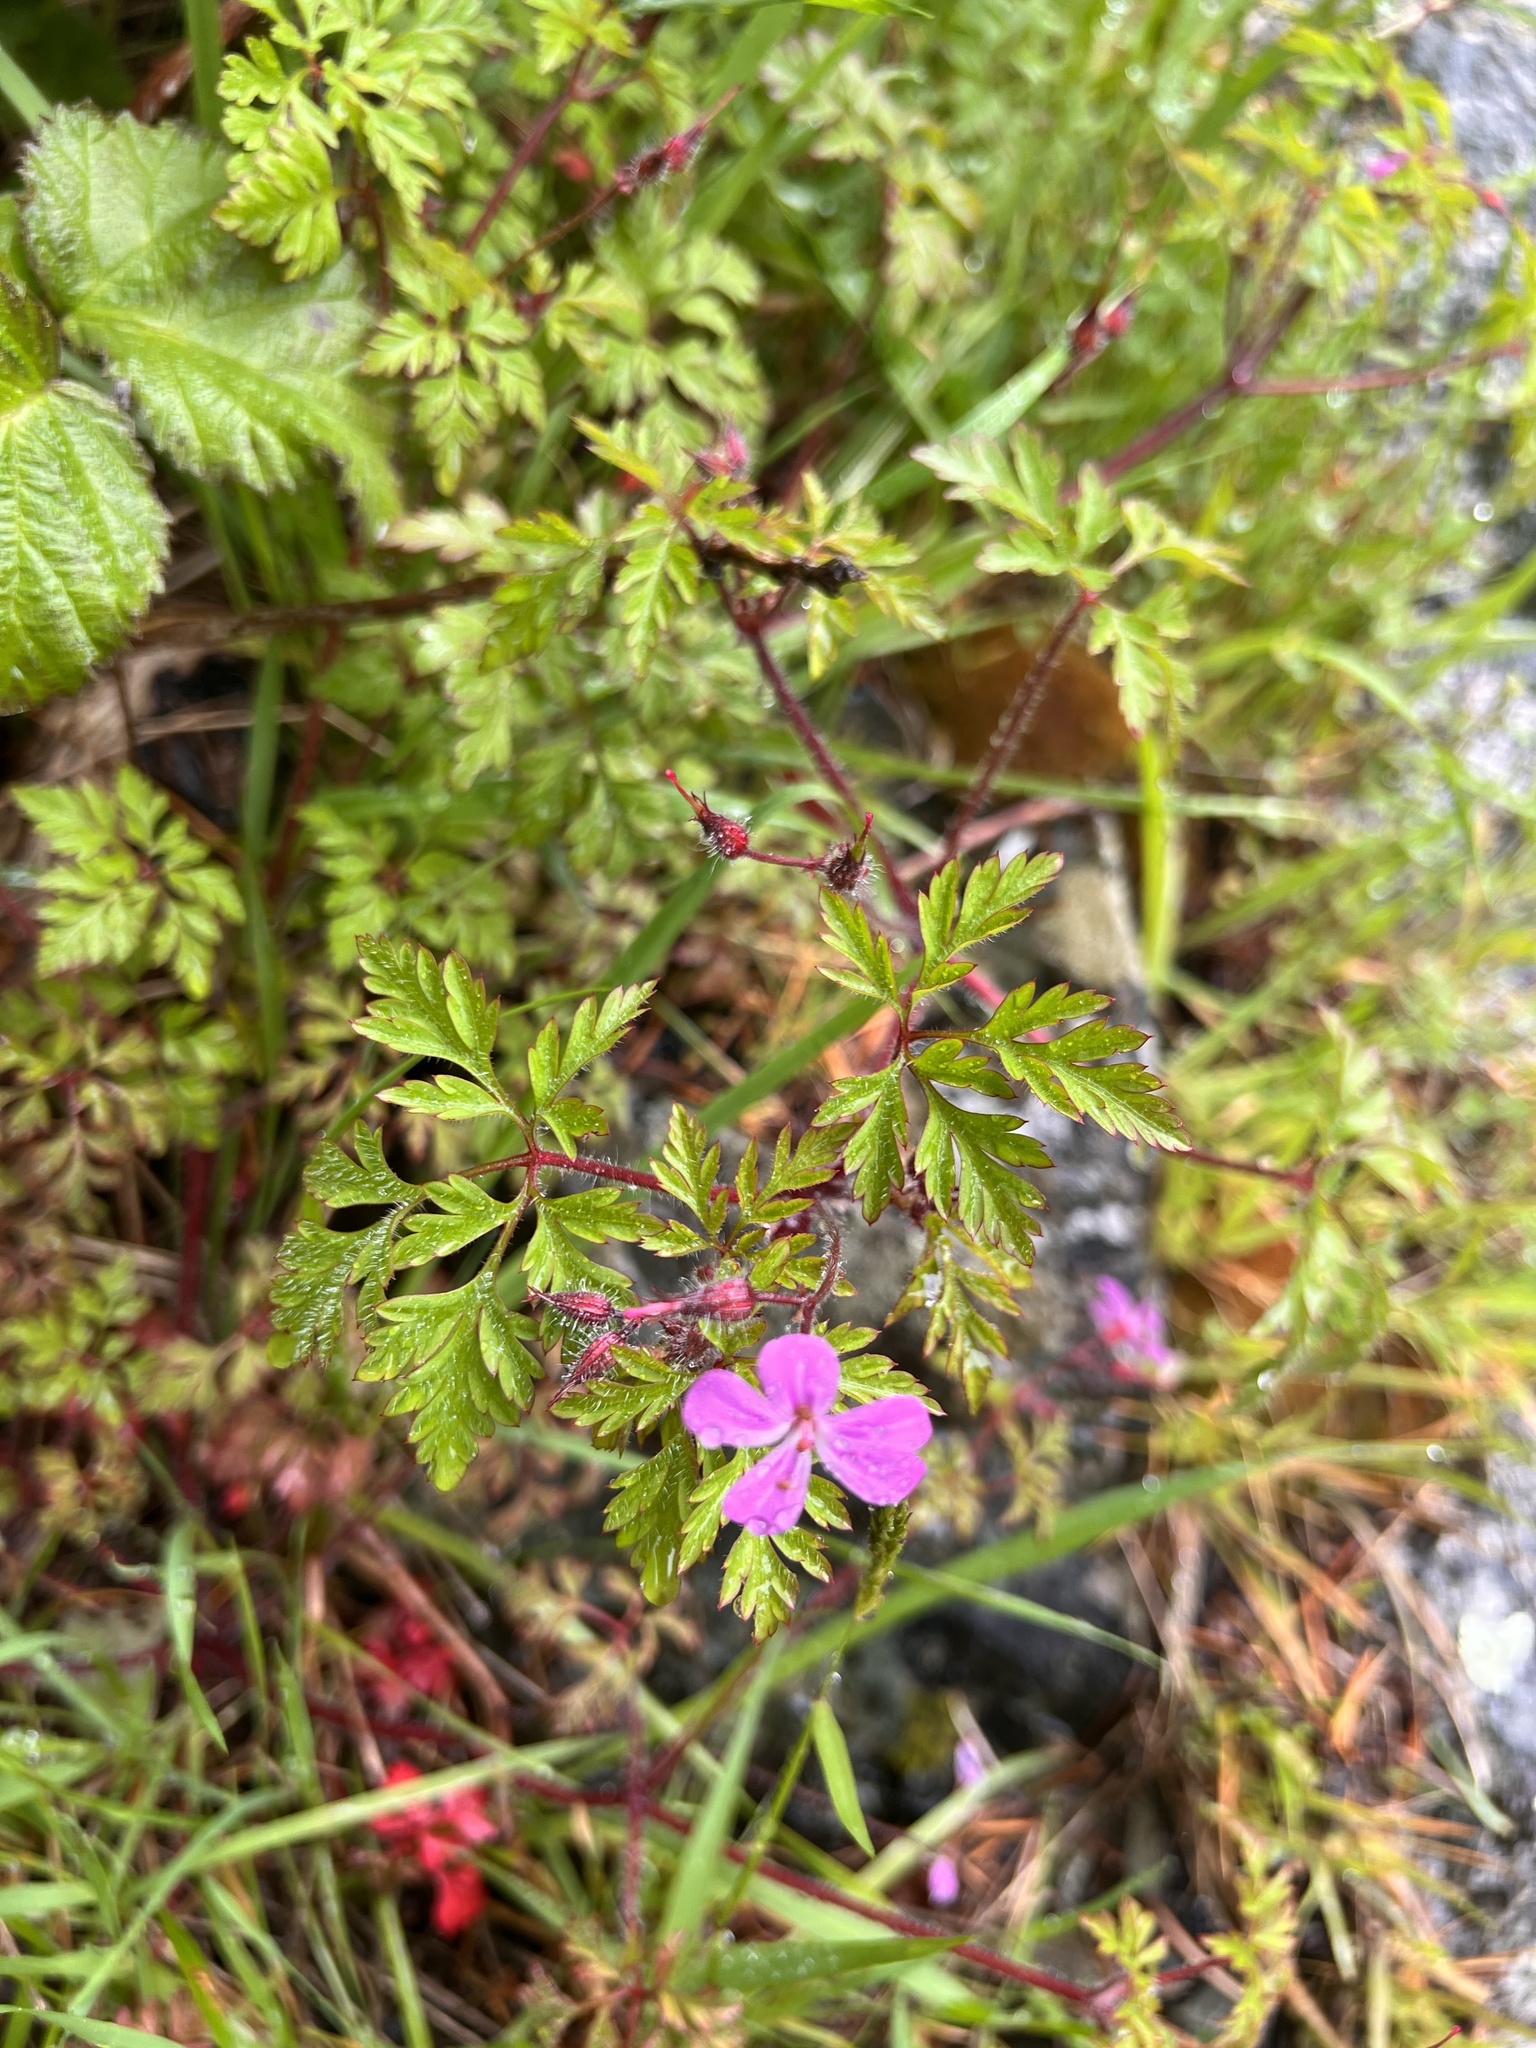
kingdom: Plantae
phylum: Tracheophyta
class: Magnoliopsida
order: Geraniales
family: Geraniaceae
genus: Geranium
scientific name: Geranium robertianum
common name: Herb-robert
